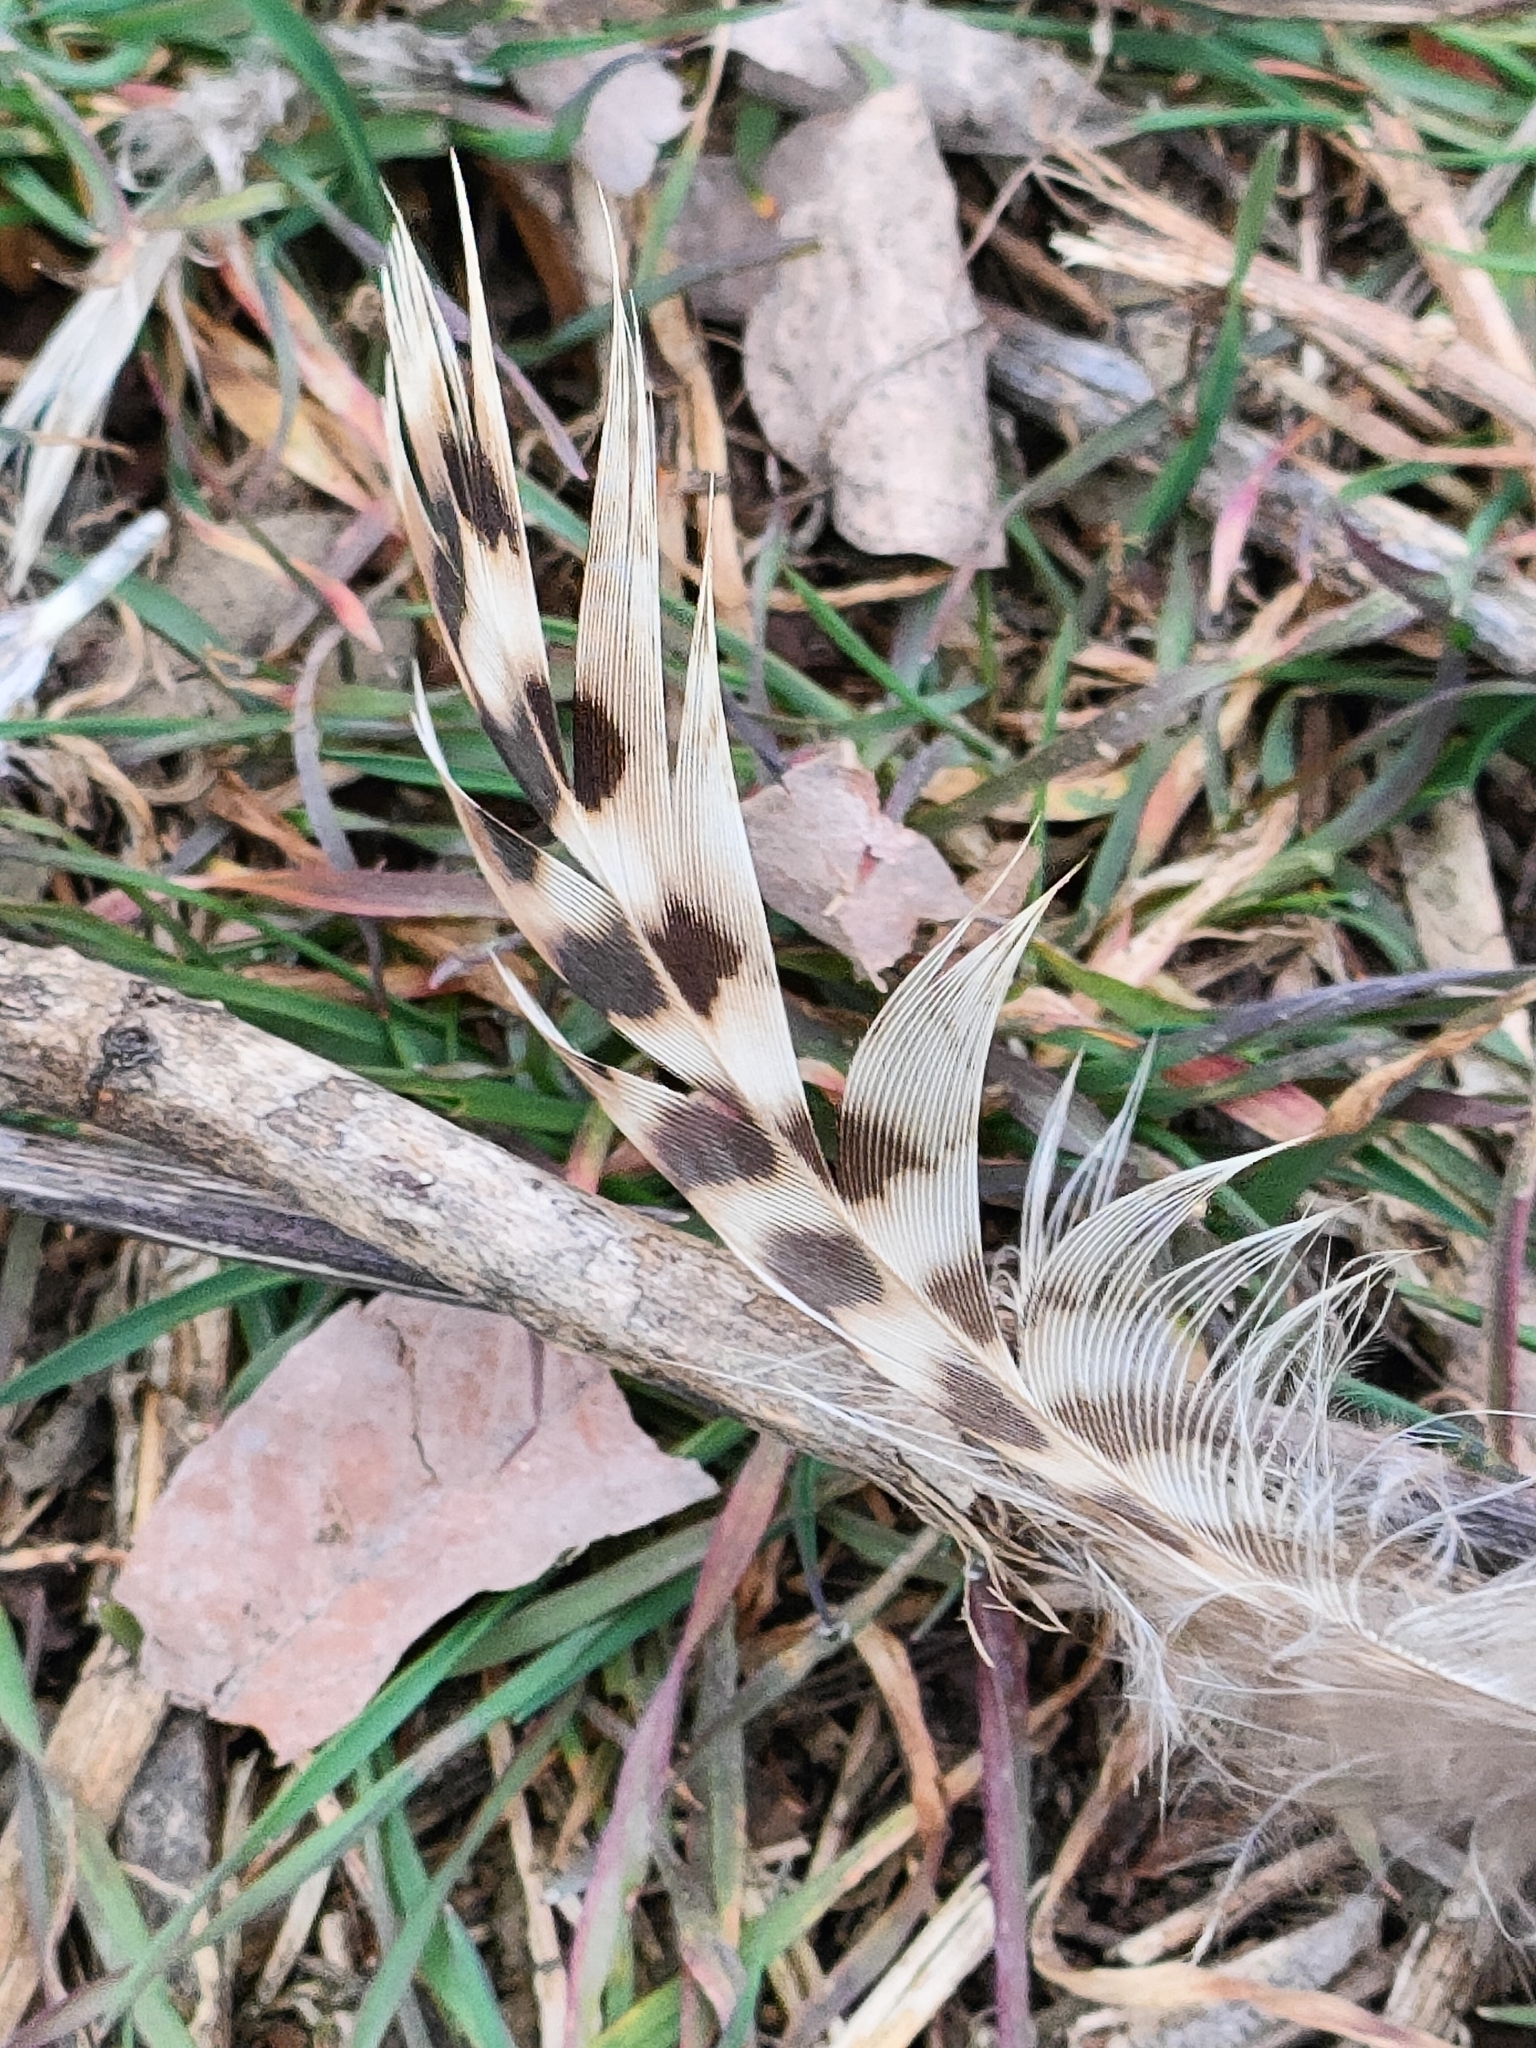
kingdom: Animalia
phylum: Chordata
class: Aves
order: Galliformes
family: Phasianidae
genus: Phasianus
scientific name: Phasianus colchicus
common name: Common pheasant
